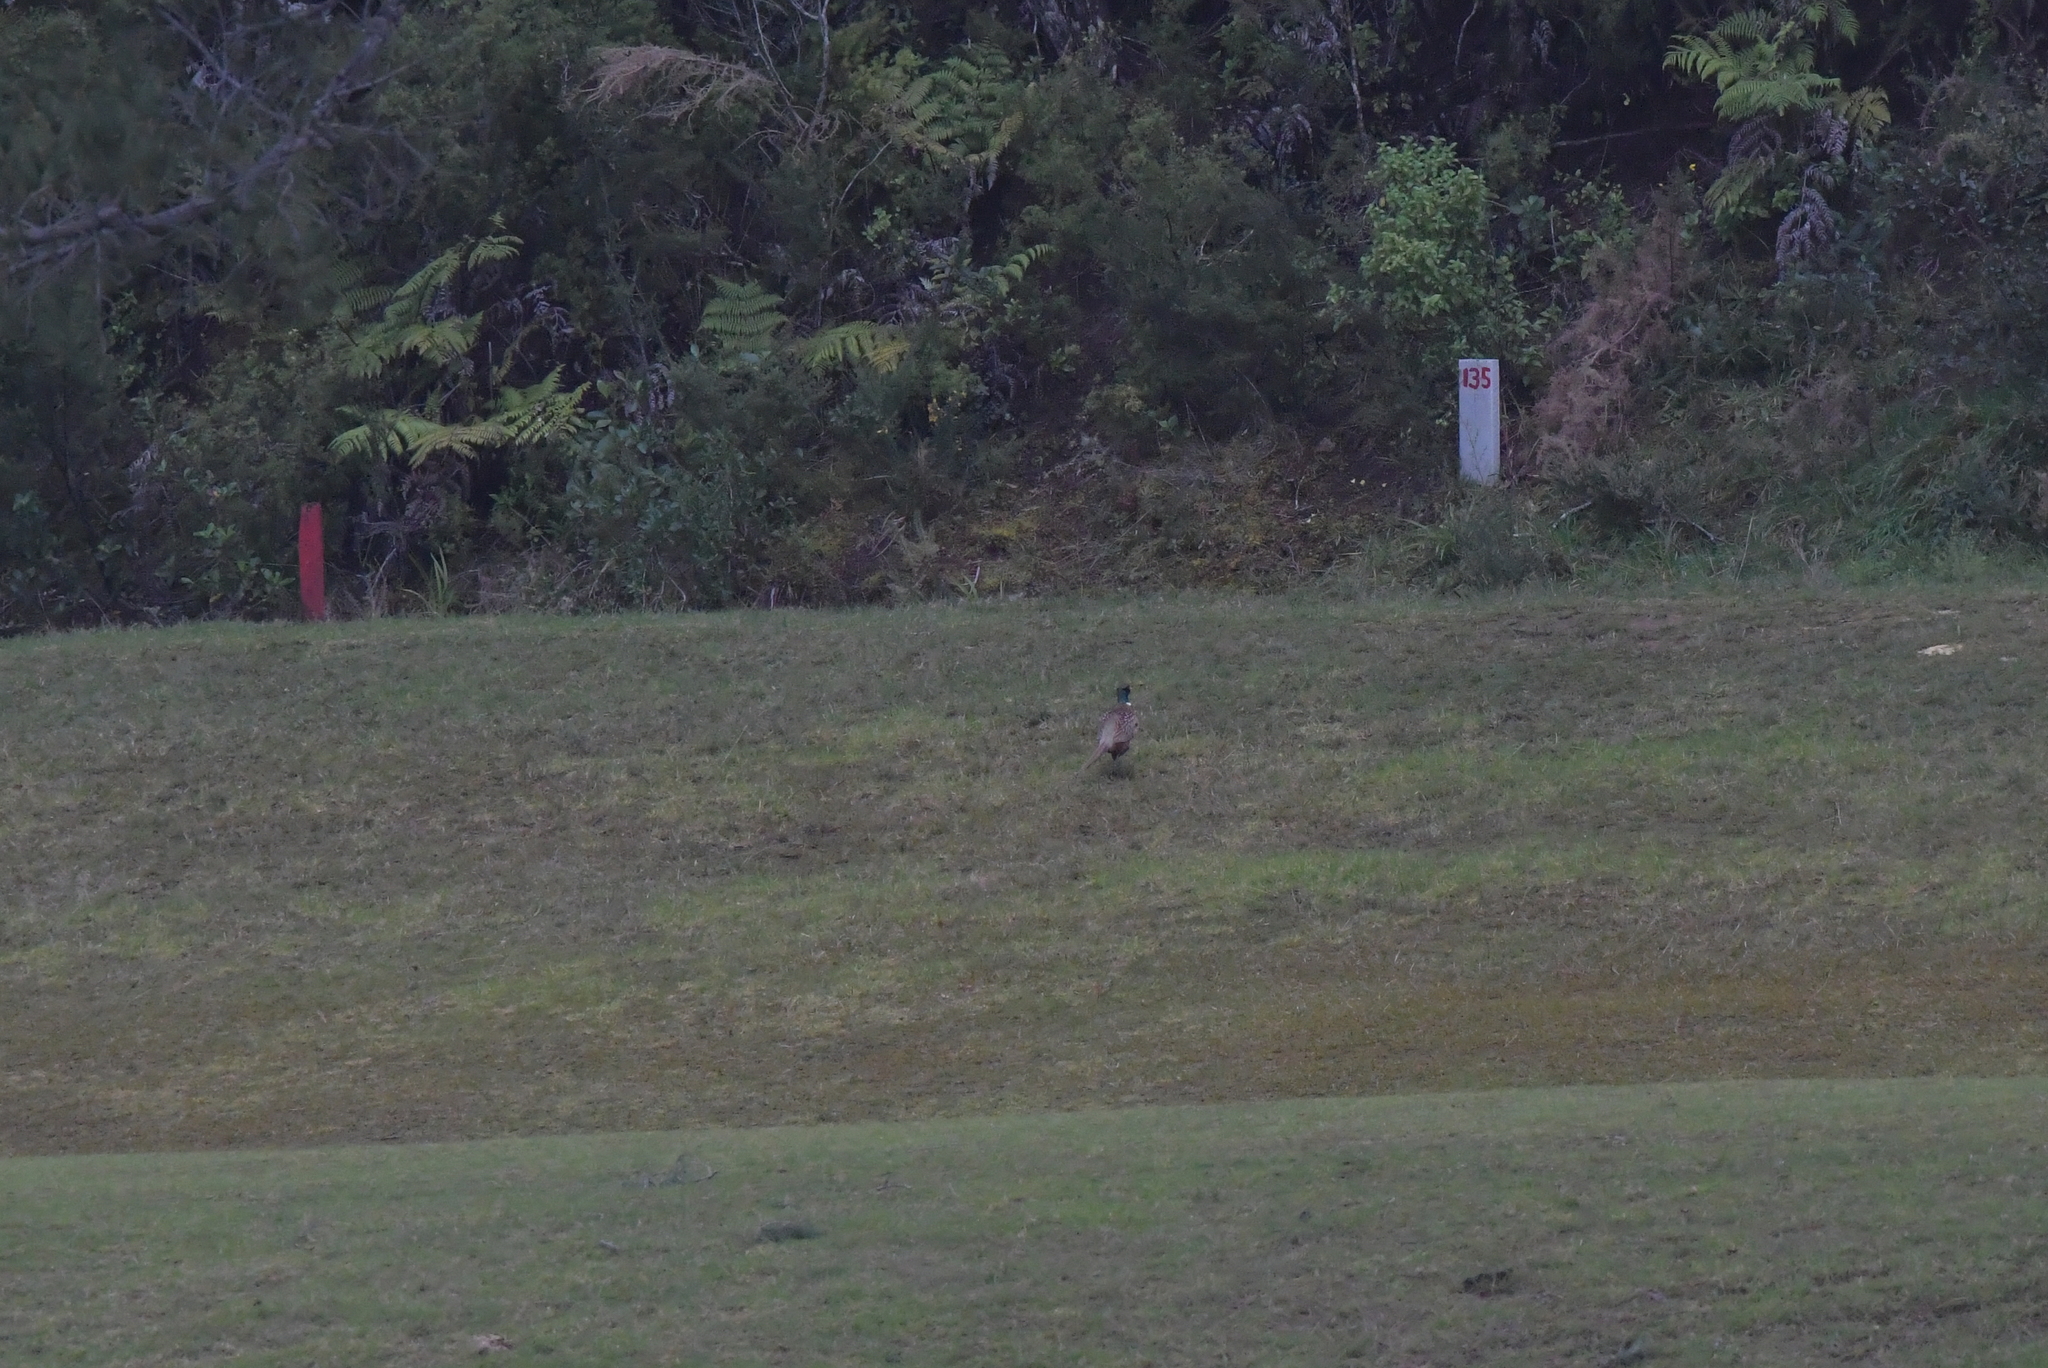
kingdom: Animalia
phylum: Chordata
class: Aves
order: Galliformes
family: Phasianidae
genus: Phasianus
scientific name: Phasianus colchicus
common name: Common pheasant
